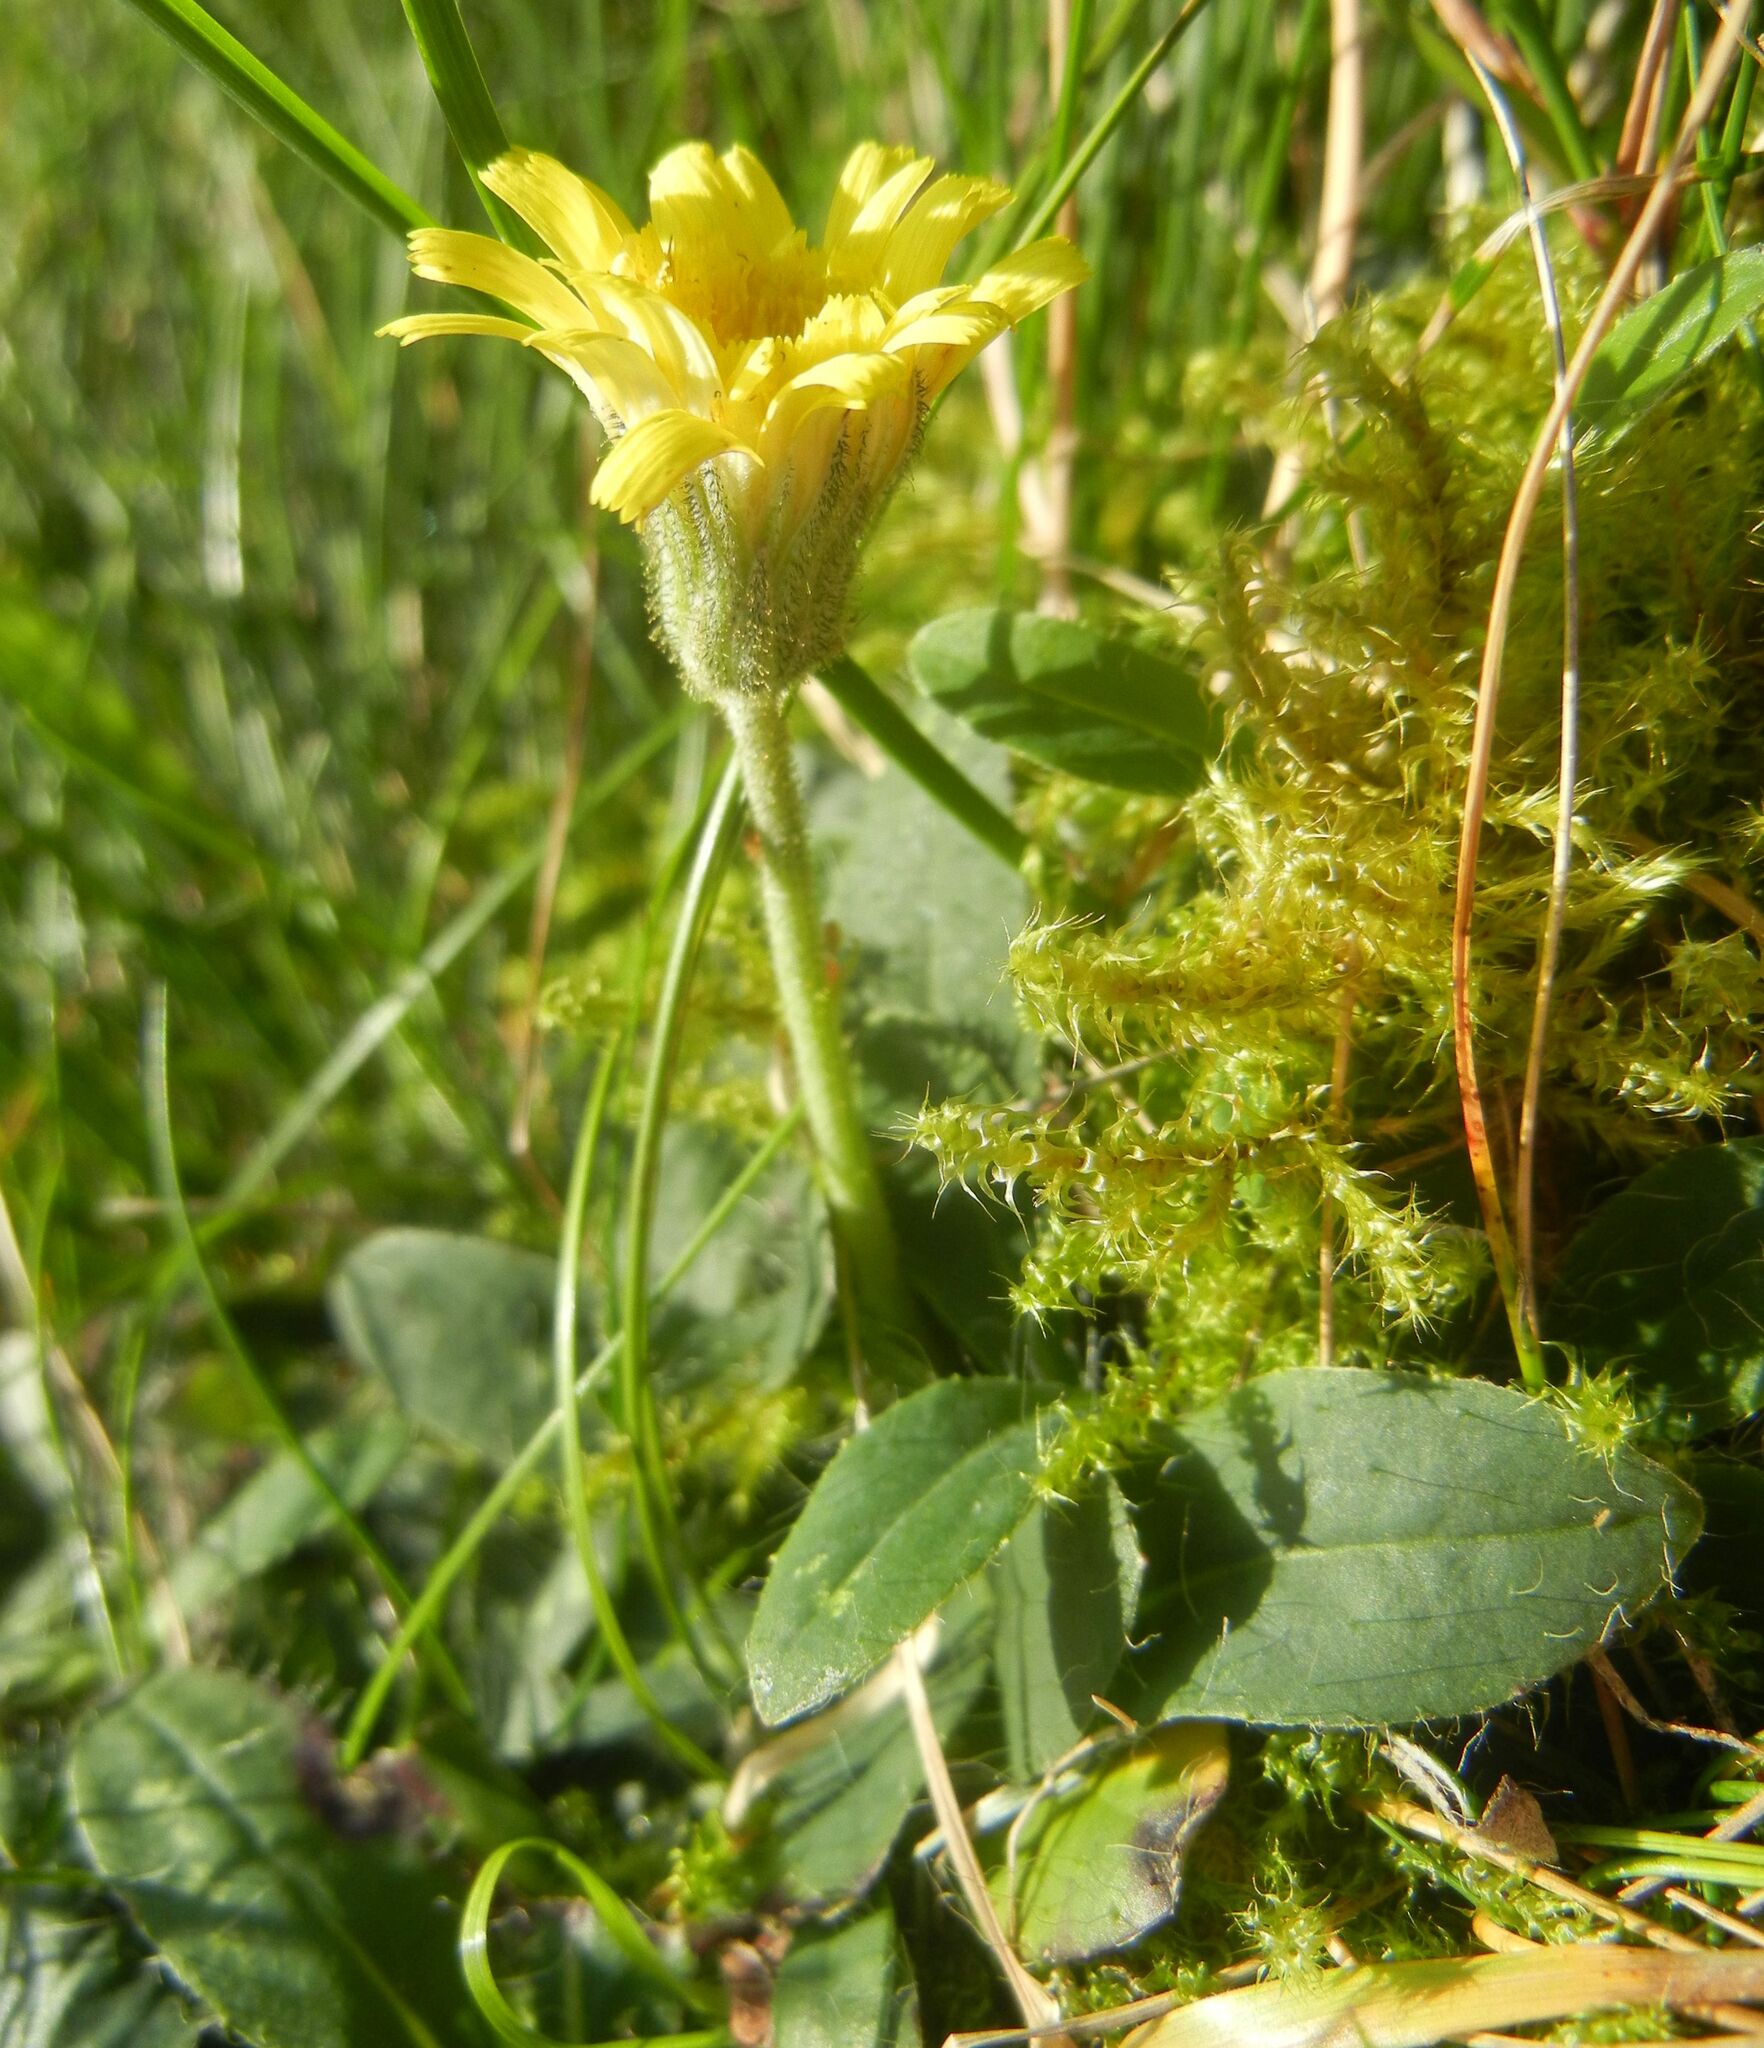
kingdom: Plantae
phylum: Tracheophyta
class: Magnoliopsida
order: Asterales
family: Asteraceae
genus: Pilosella
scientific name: Pilosella officinarum
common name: Mouse-ear hawkweed
